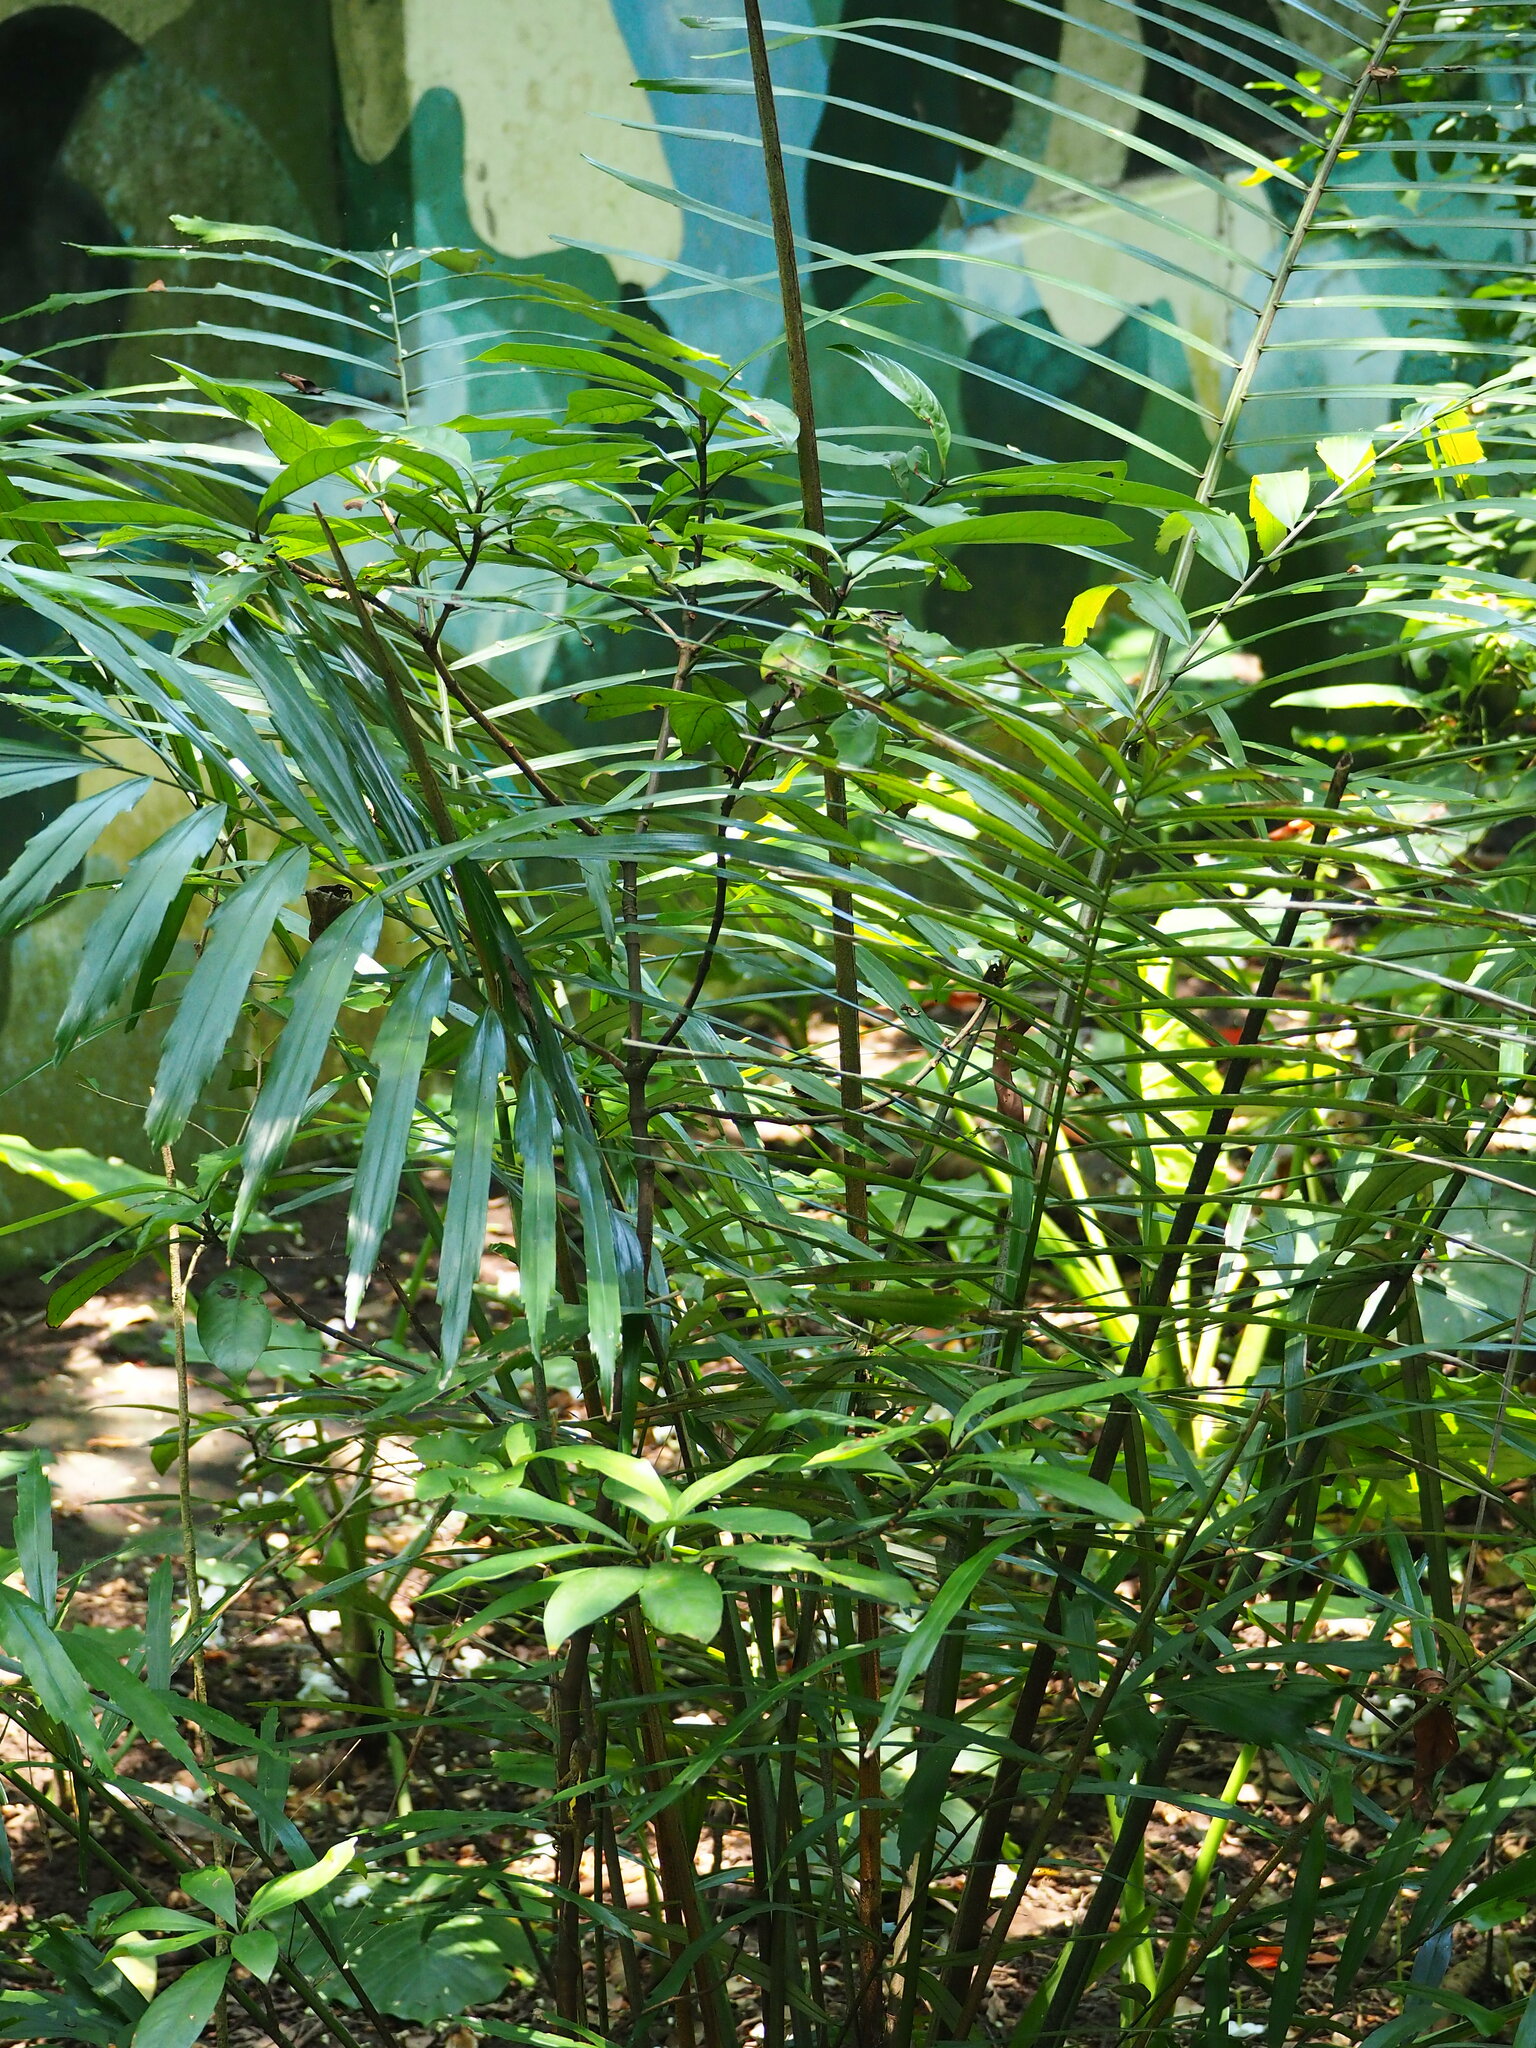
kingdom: Plantae
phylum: Tracheophyta
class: Liliopsida
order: Arecales
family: Arecaceae
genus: Arenga
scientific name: Arenga engleri
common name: Formosan sugar palm
